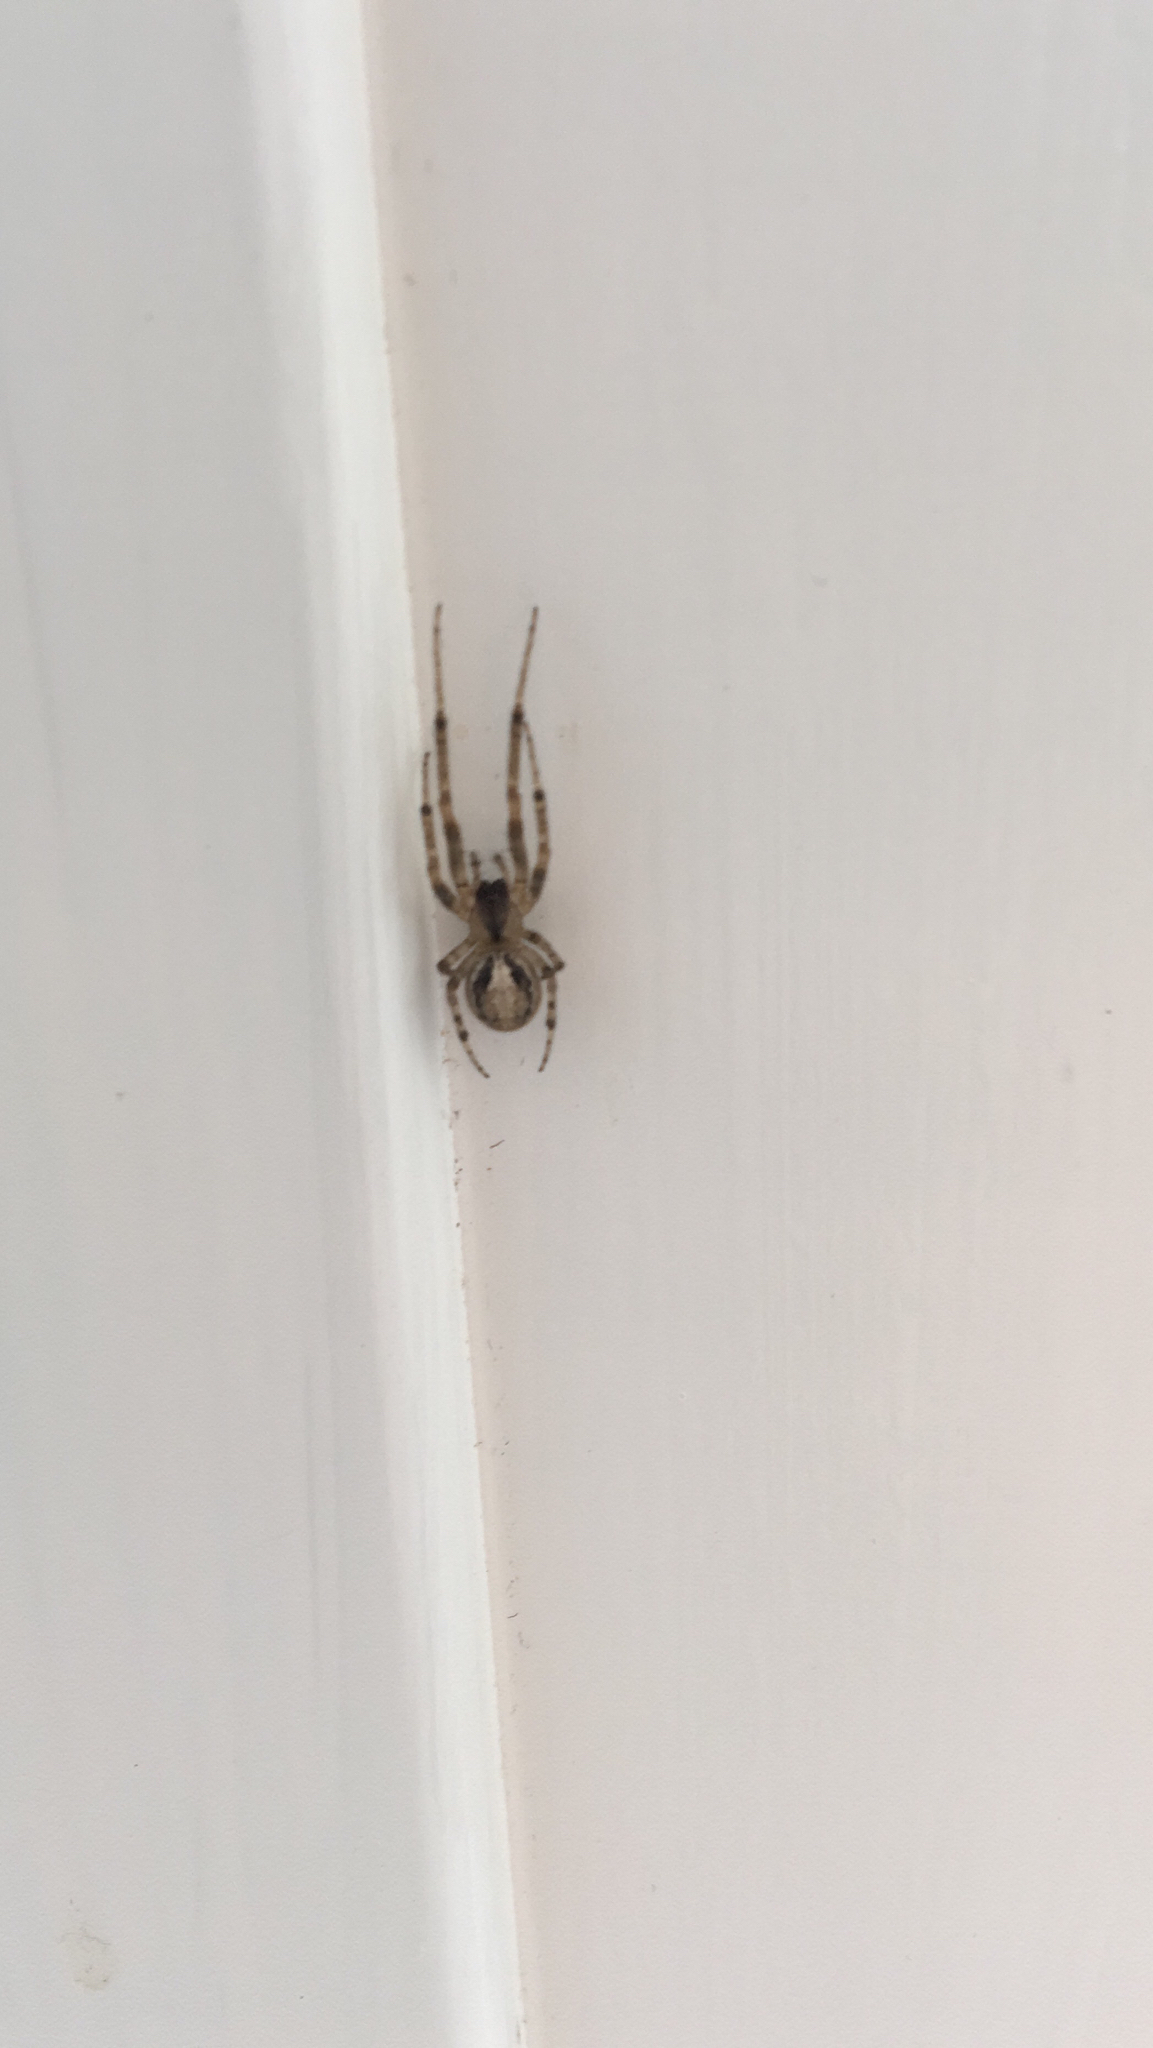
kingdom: Animalia
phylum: Arthropoda
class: Arachnida
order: Araneae
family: Araneidae
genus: Zygiella
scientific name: Zygiella x-notata
